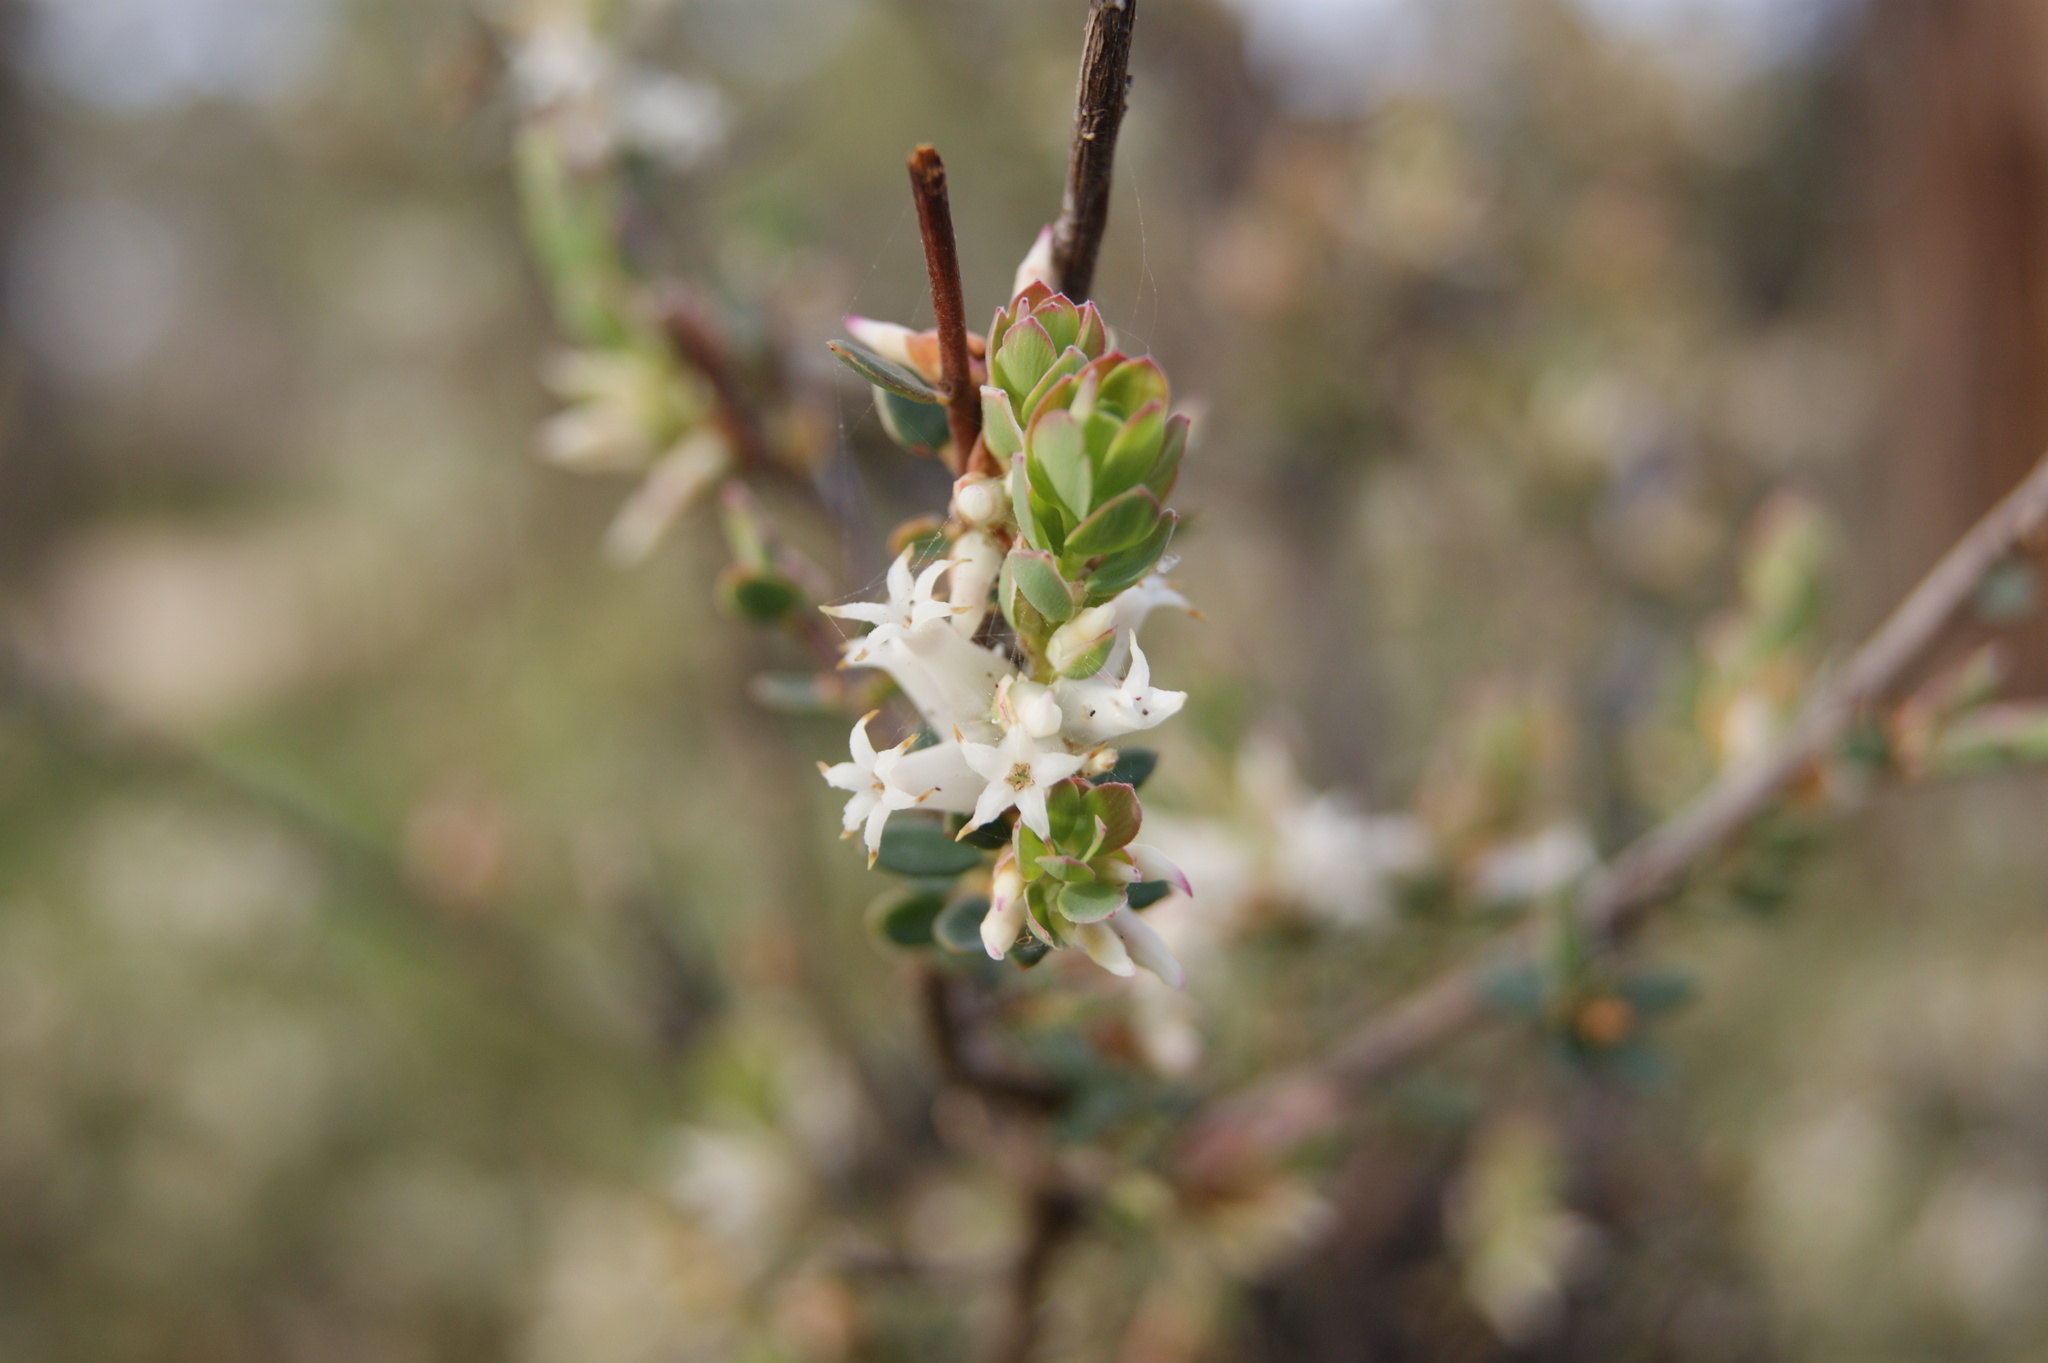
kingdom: Plantae
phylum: Tracheophyta
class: Magnoliopsida
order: Ericales
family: Ericaceae
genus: Brachyloma
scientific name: Brachyloma daphnoides
